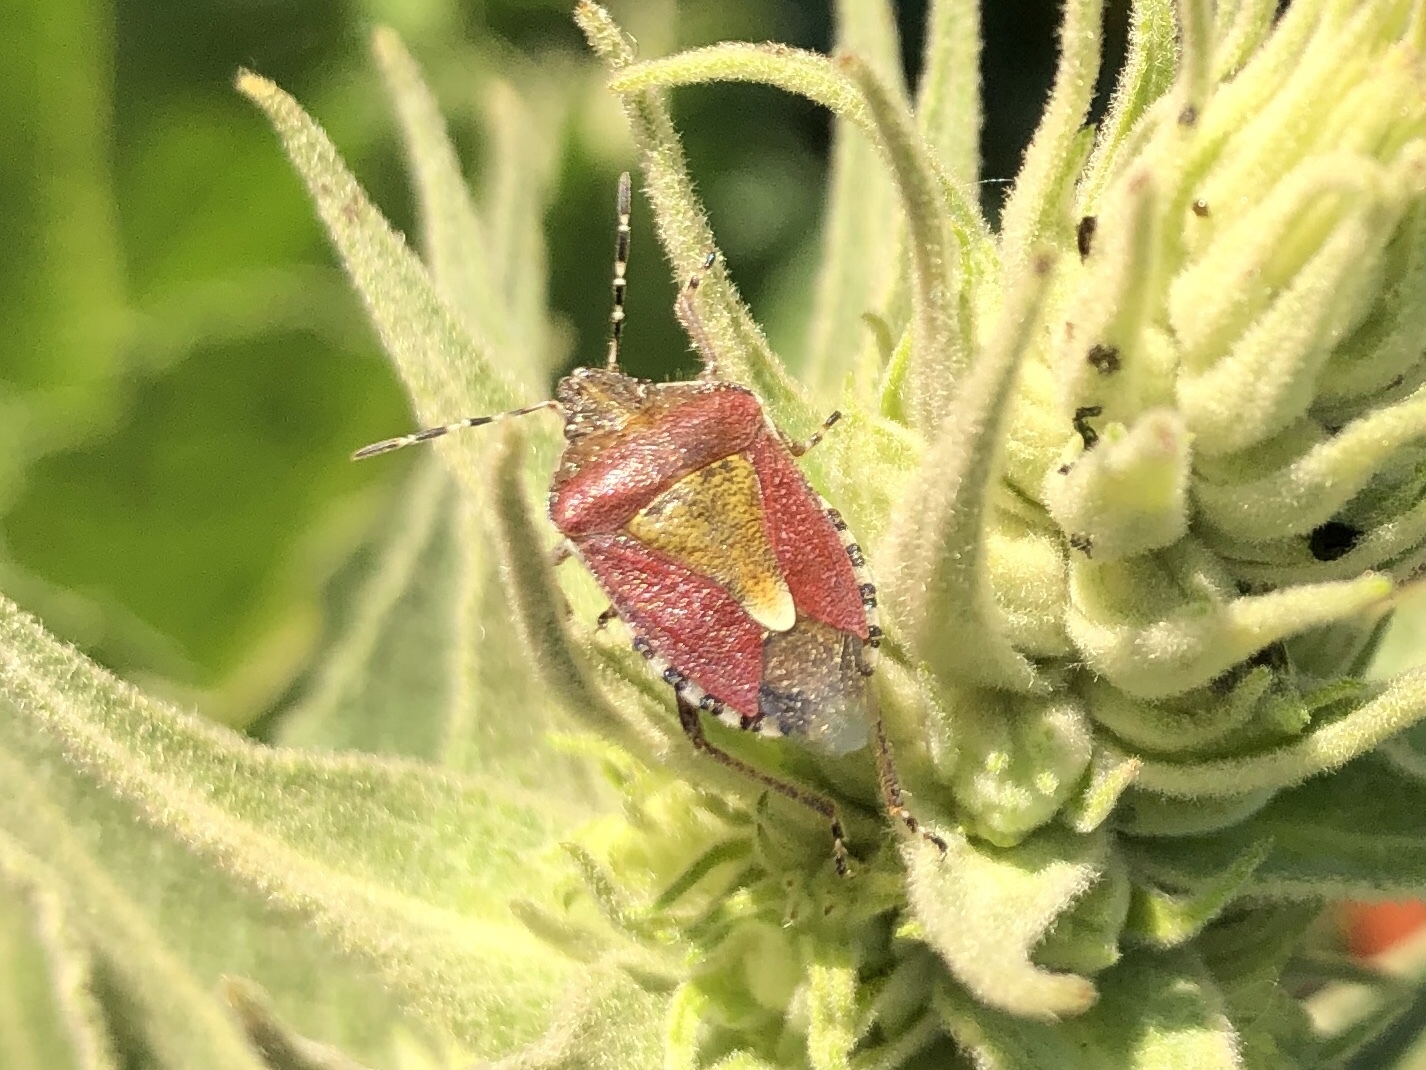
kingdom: Animalia
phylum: Arthropoda
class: Insecta
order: Hemiptera
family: Pentatomidae
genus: Dolycoris
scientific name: Dolycoris baccarum
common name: Sloe bug
